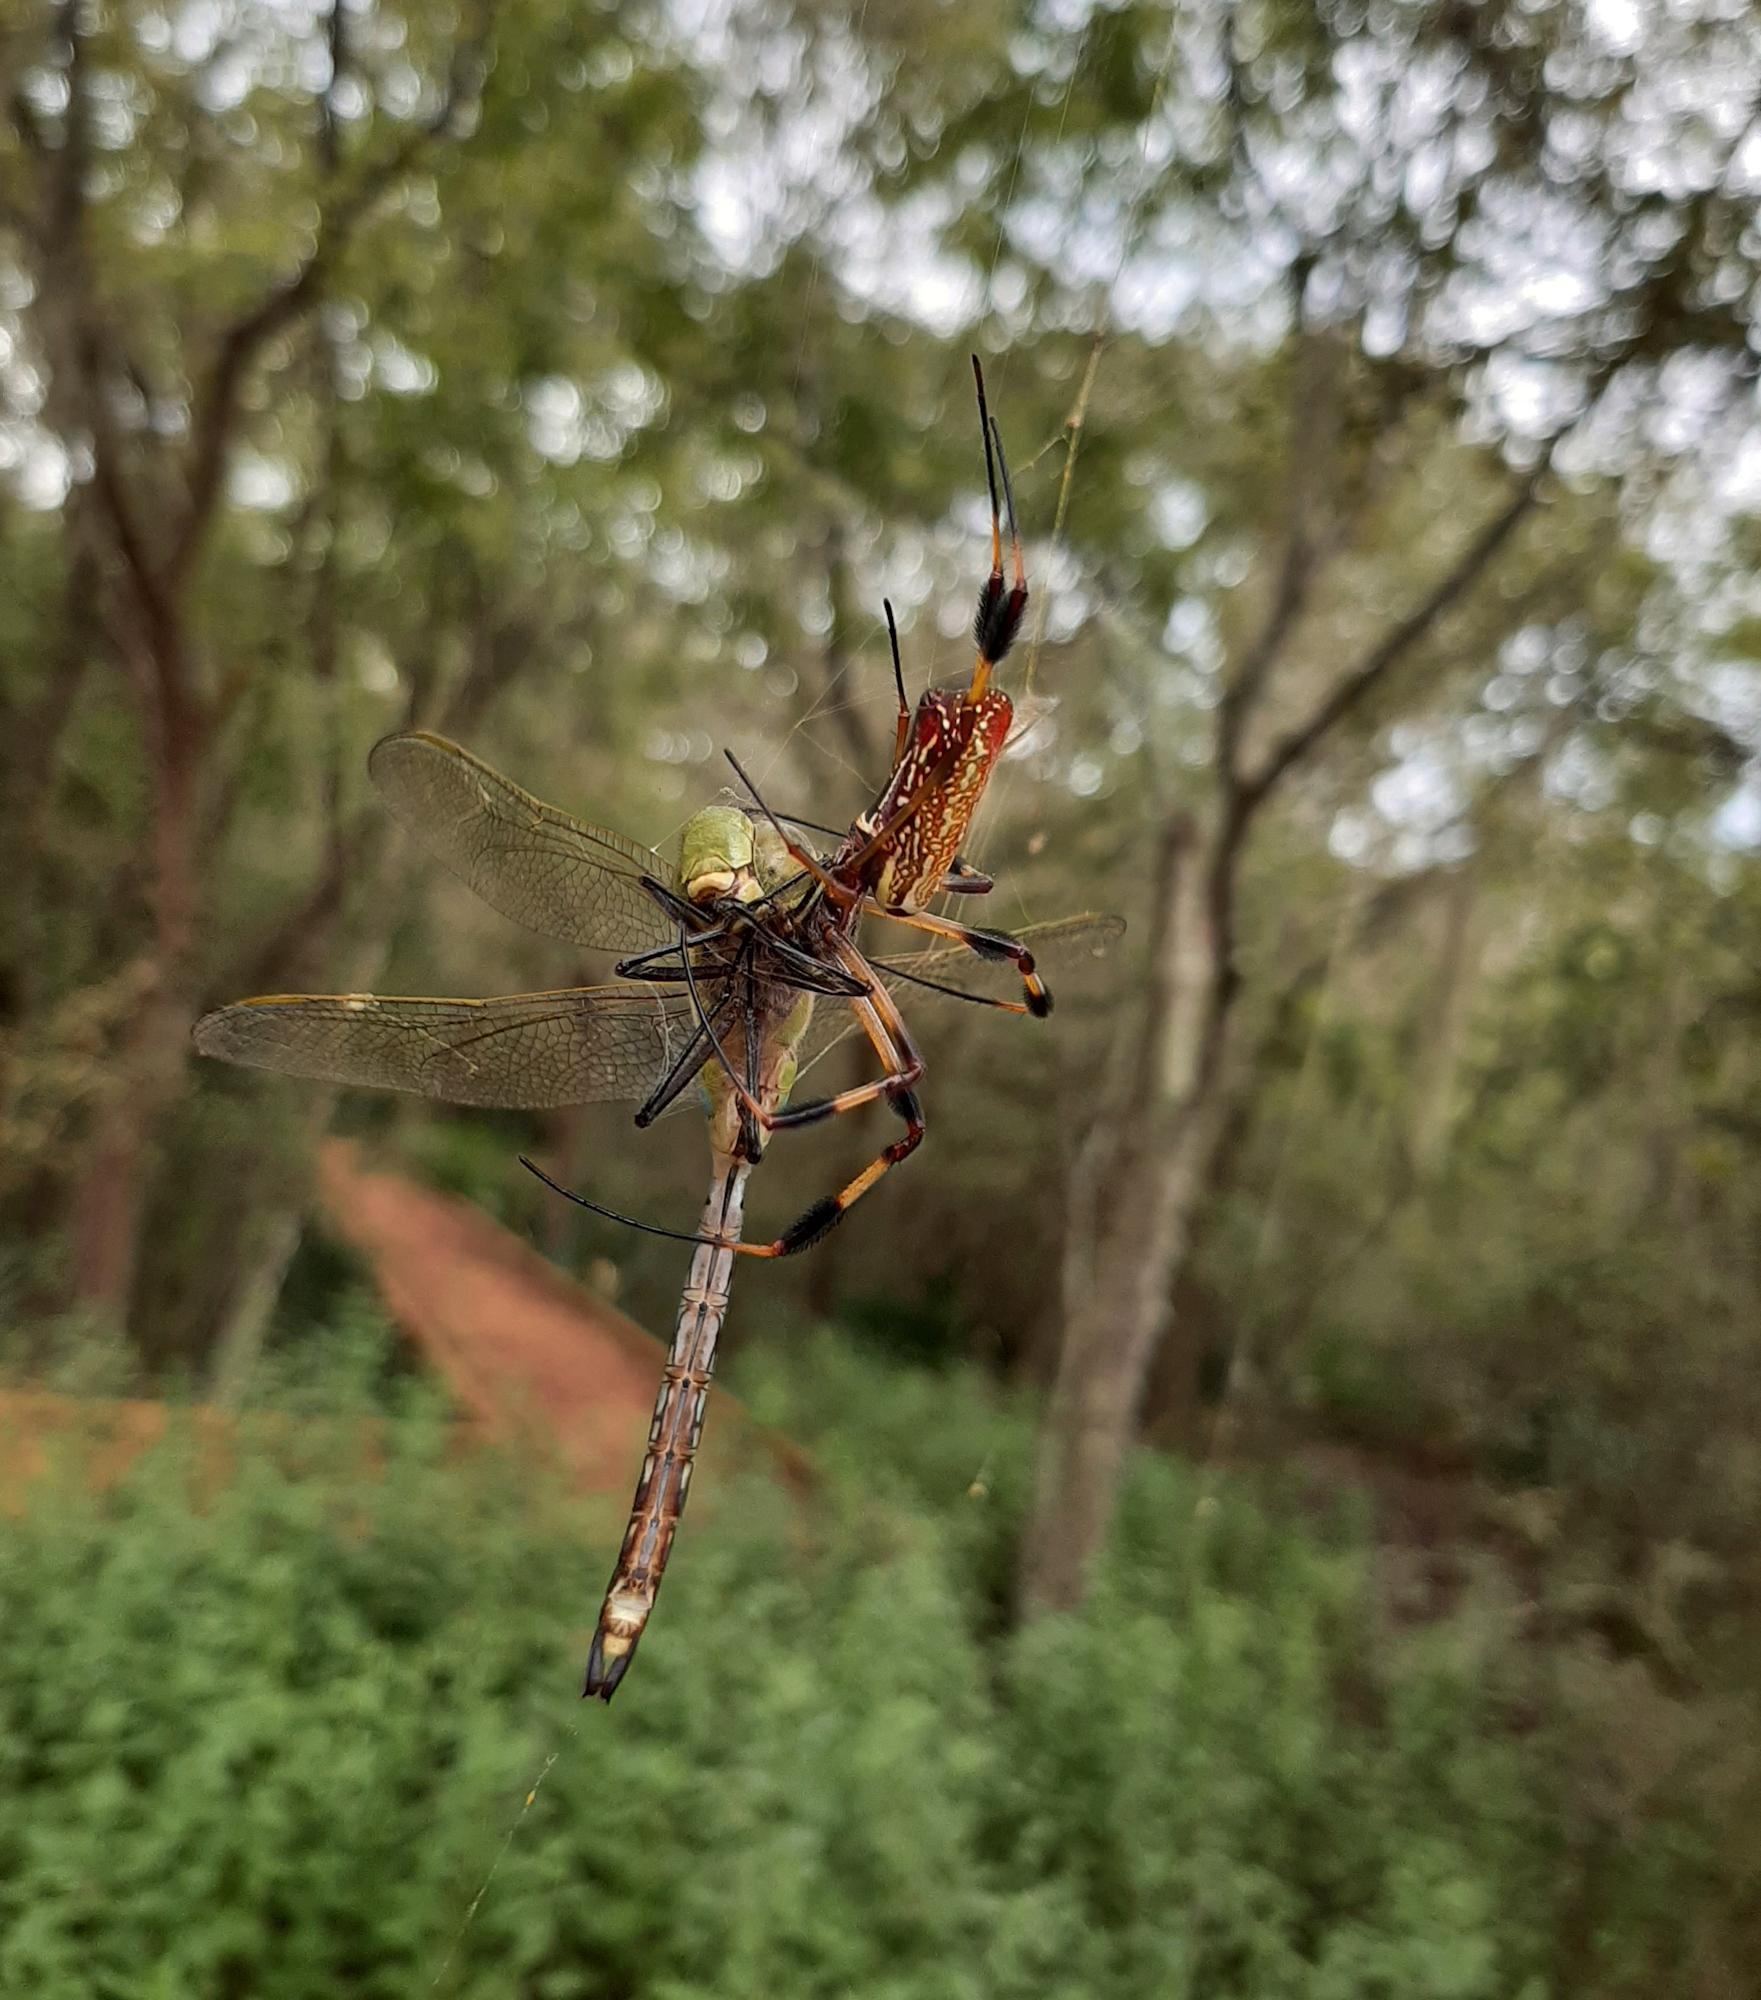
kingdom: Animalia
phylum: Arthropoda
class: Insecta
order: Odonata
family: Aeshnidae
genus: Anax
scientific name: Anax junius
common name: Common green darner
